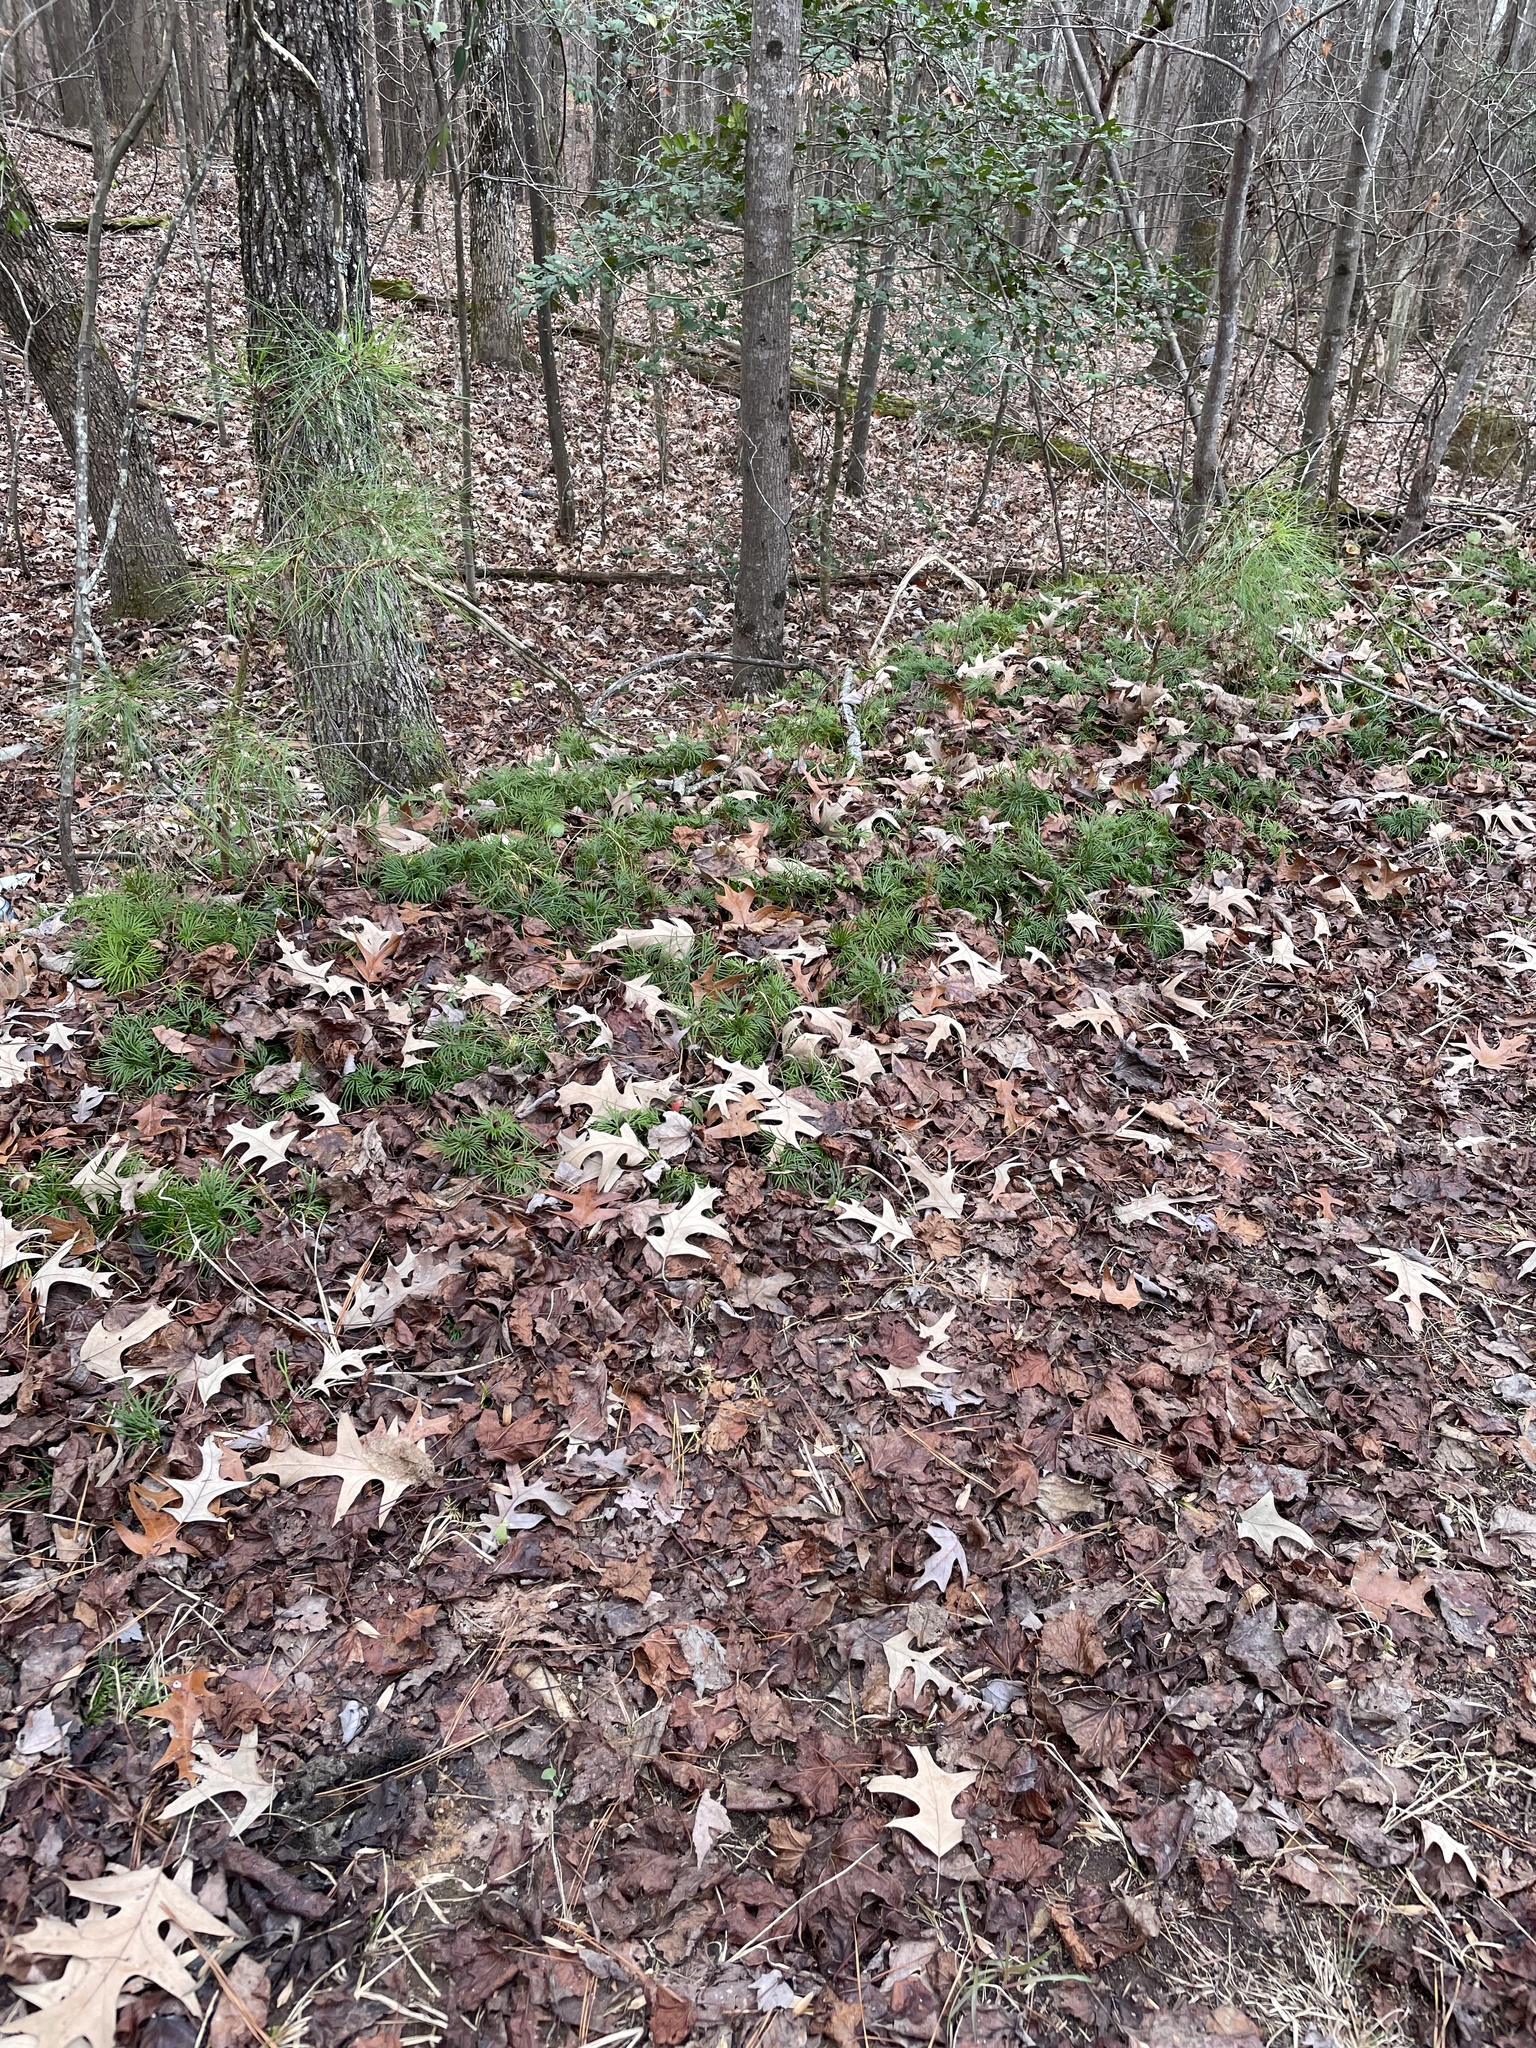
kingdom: Plantae
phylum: Tracheophyta
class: Lycopodiopsida
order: Lycopodiales
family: Lycopodiaceae
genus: Diphasiastrum
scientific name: Diphasiastrum digitatum
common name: Southern running-pine
